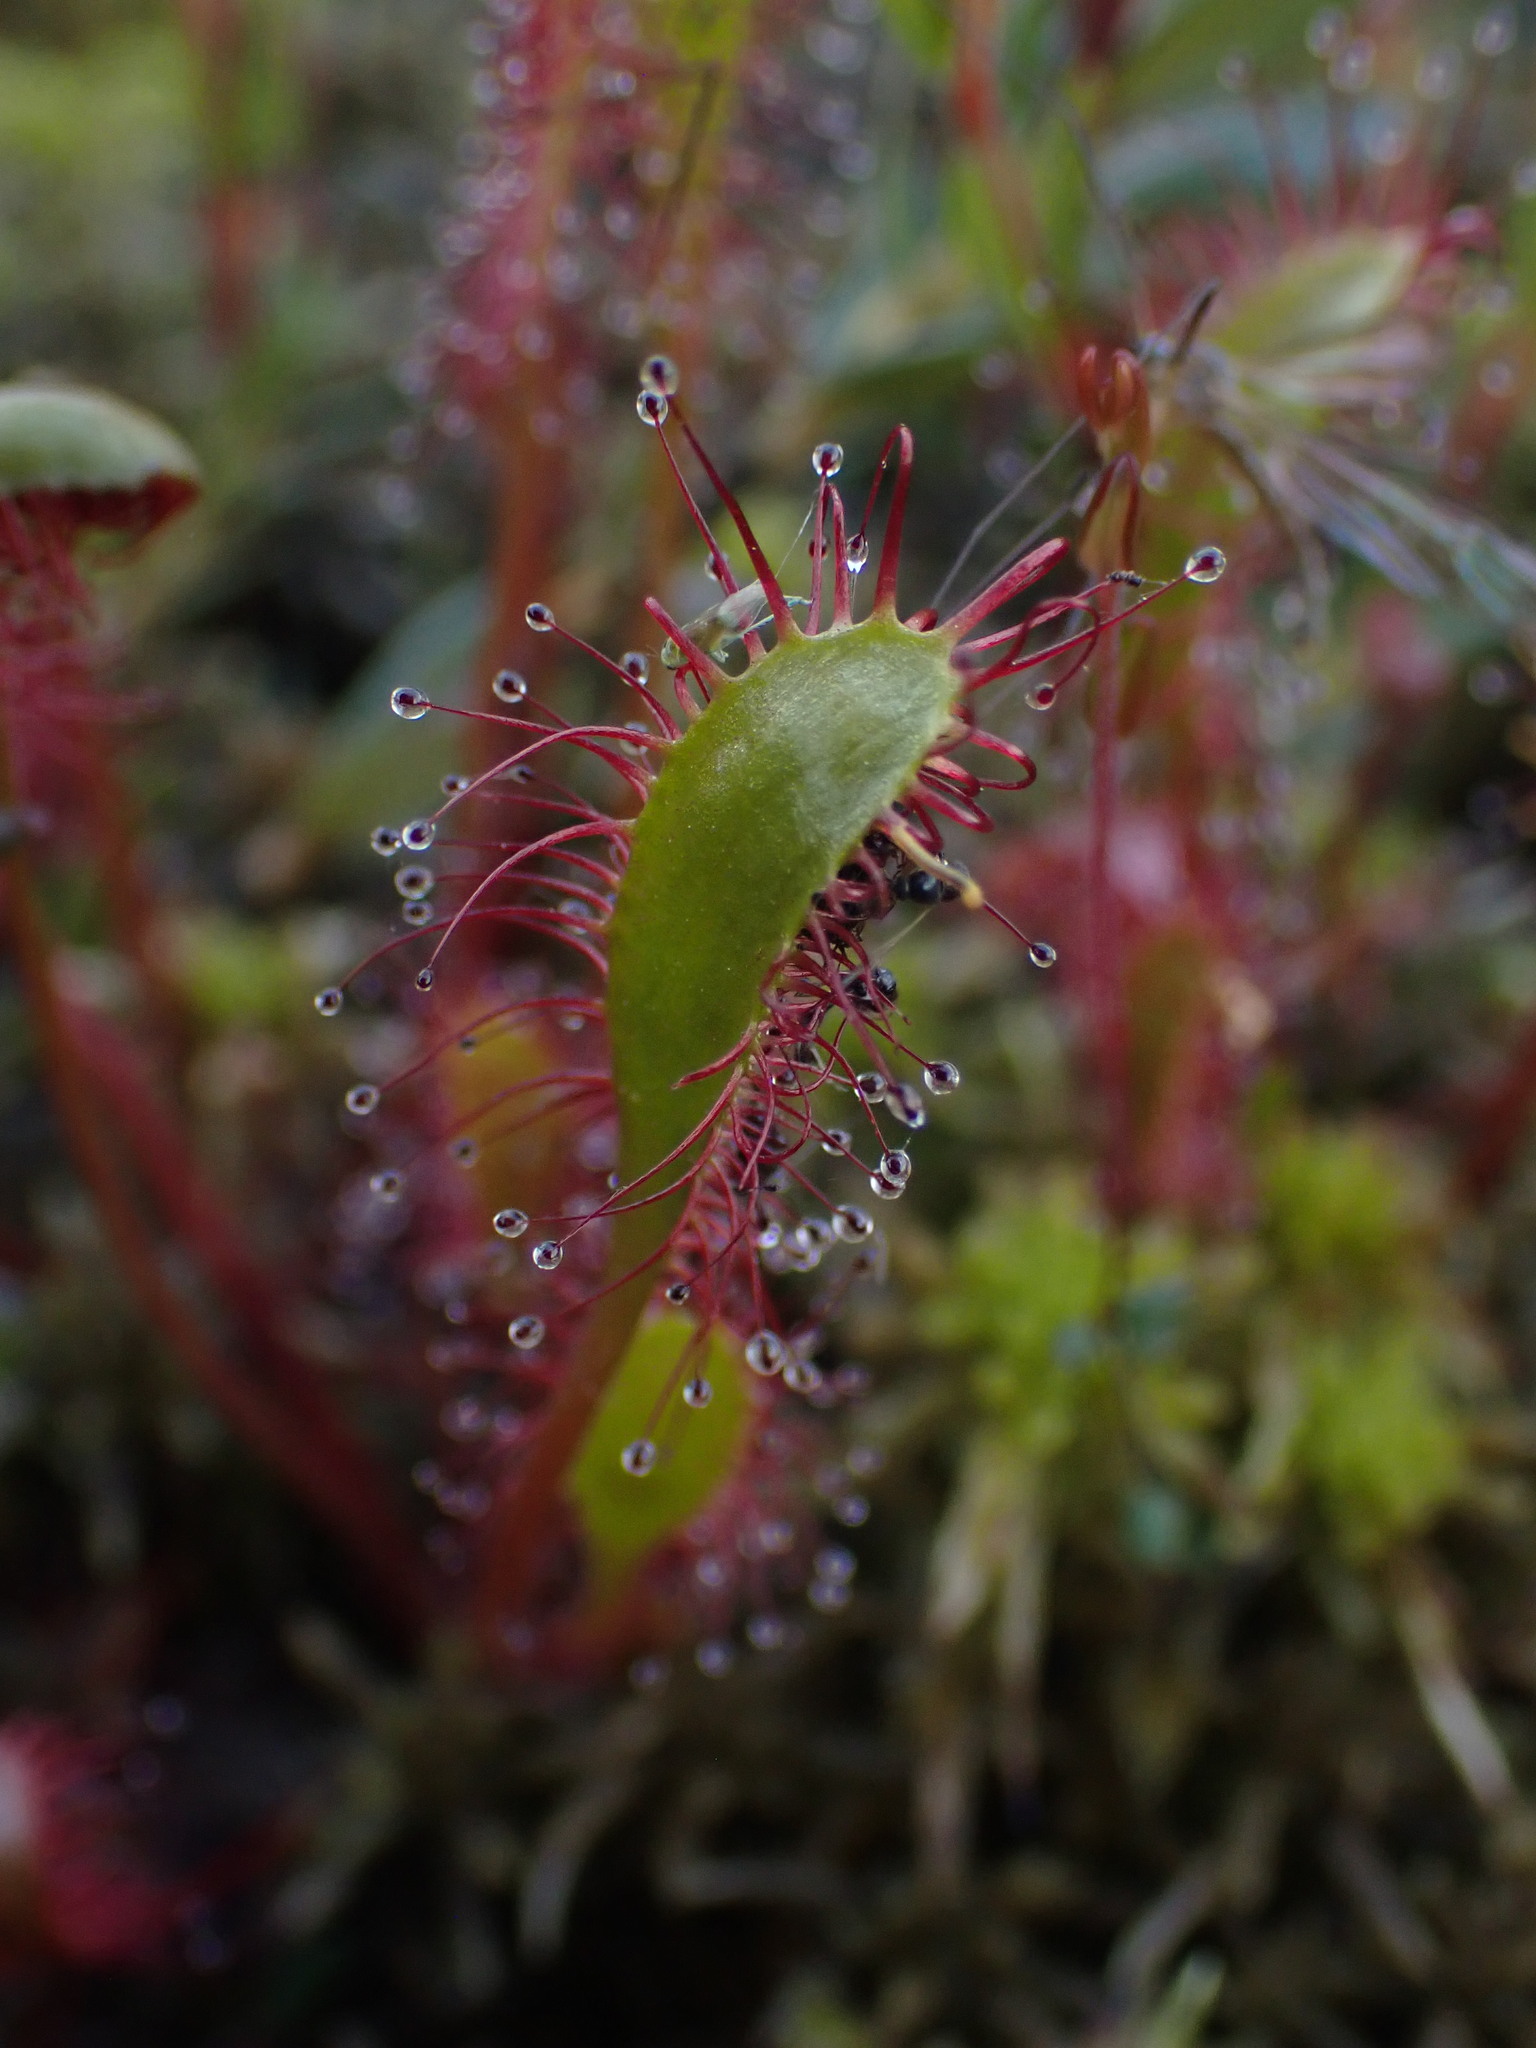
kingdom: Plantae
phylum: Tracheophyta
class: Magnoliopsida
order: Caryophyllales
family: Droseraceae
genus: Drosera
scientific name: Drosera anglica
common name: Great sundew
